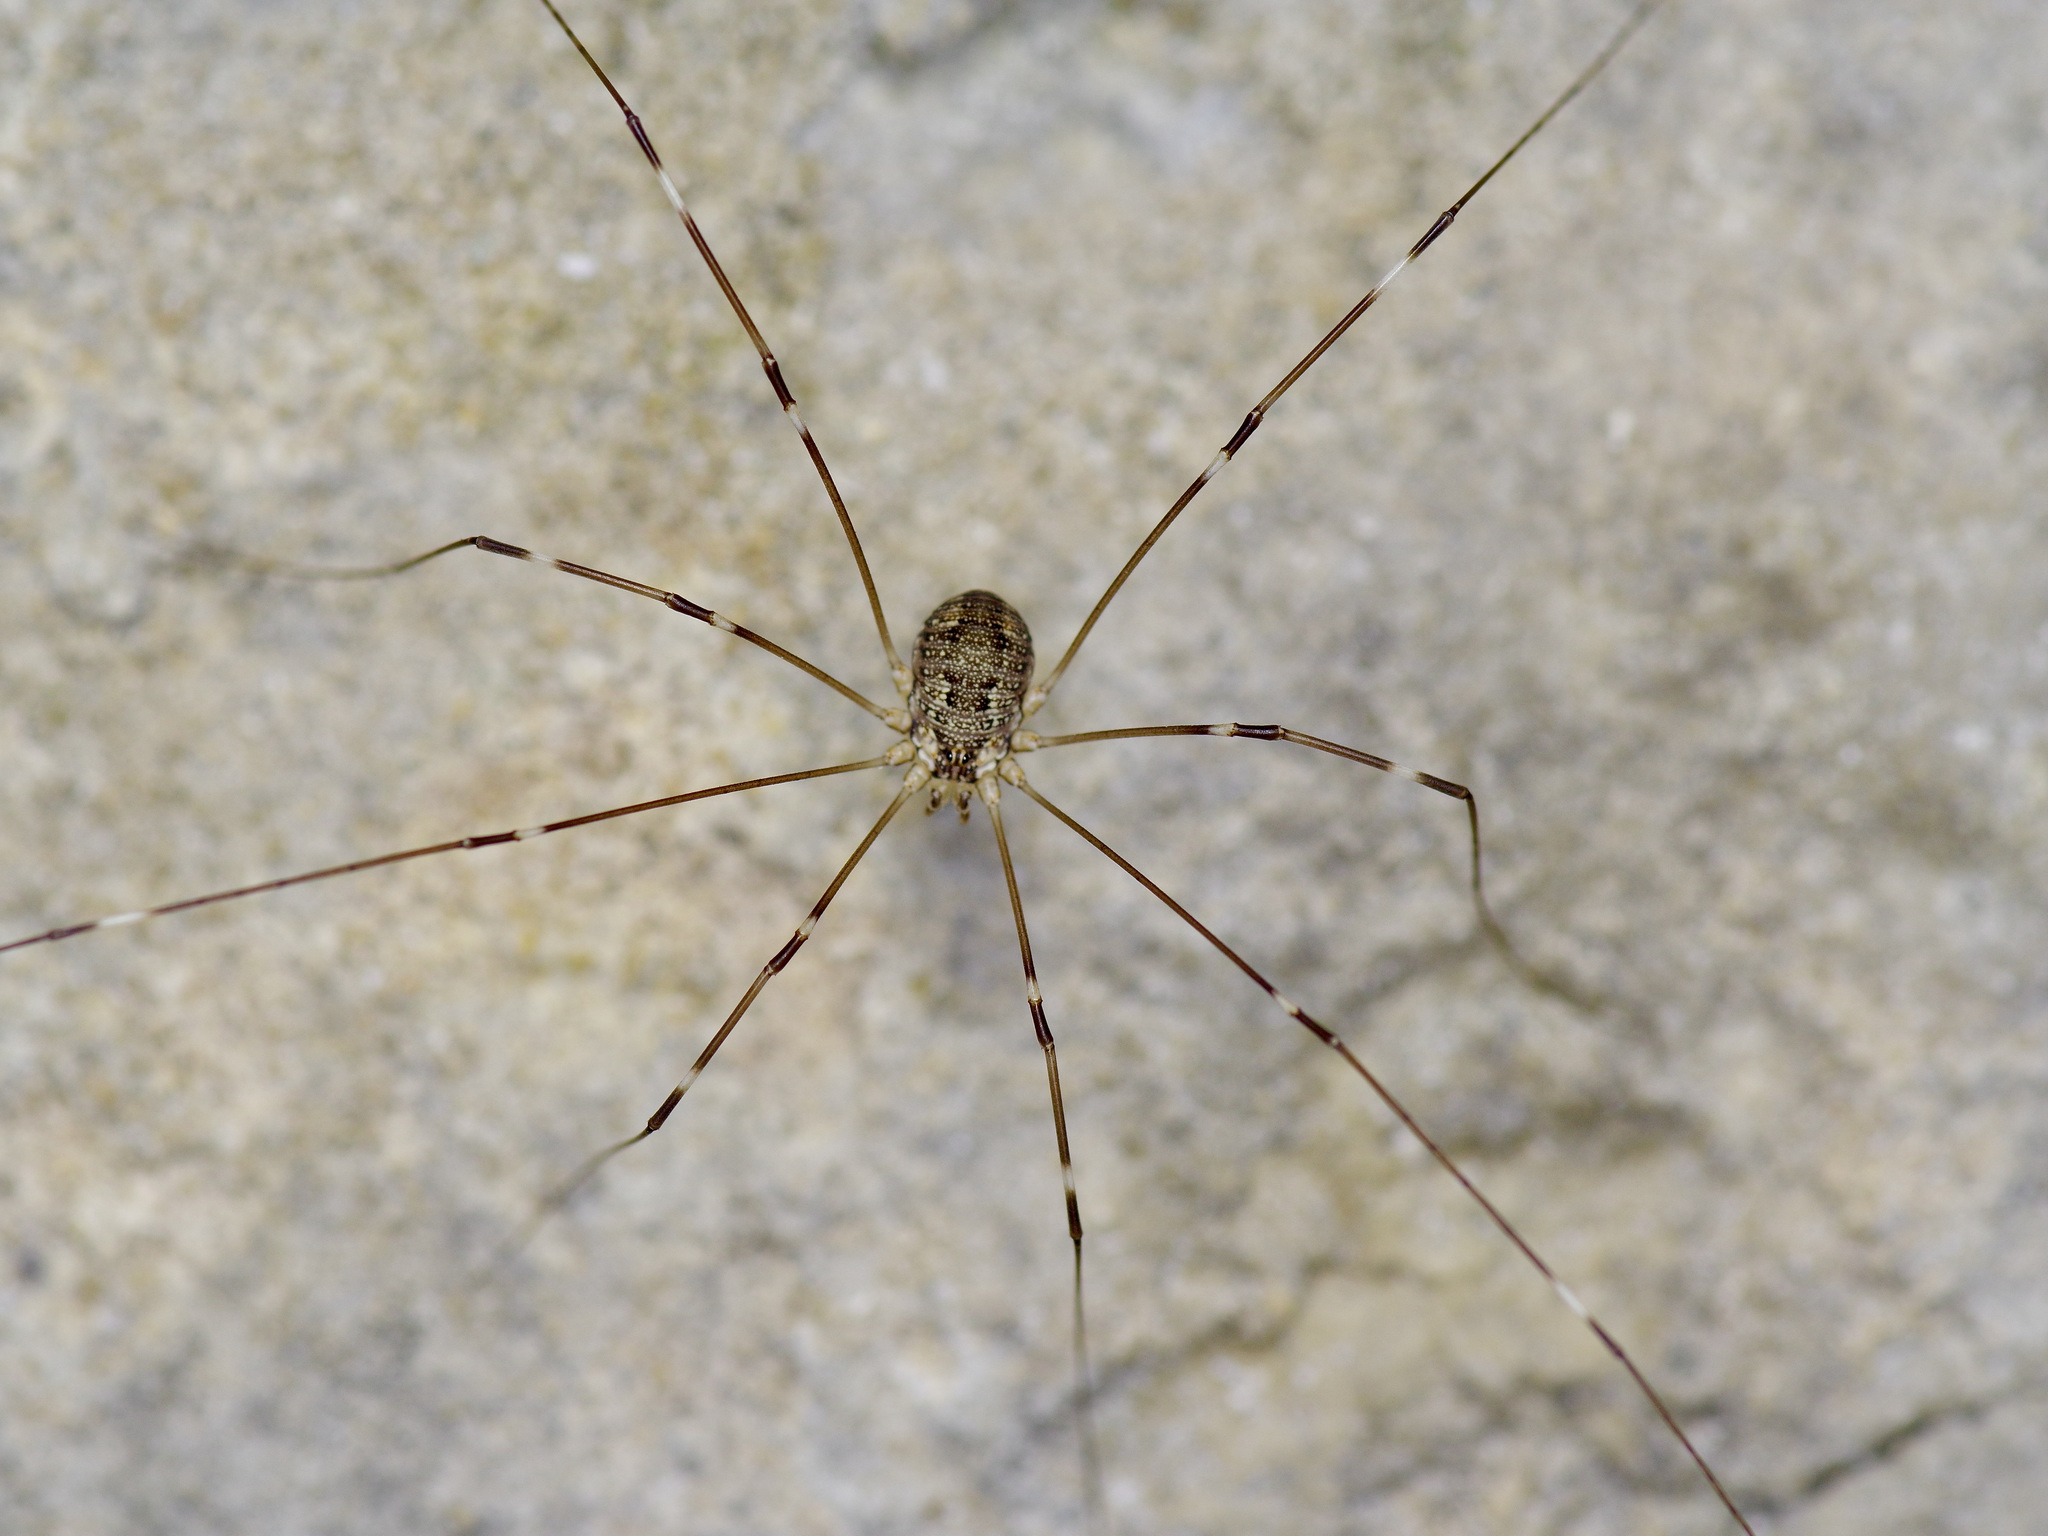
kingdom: Animalia
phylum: Arthropoda
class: Arachnida
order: Opiliones
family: Sclerosomatidae
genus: Leiobunum
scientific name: Leiobunum townsendi
